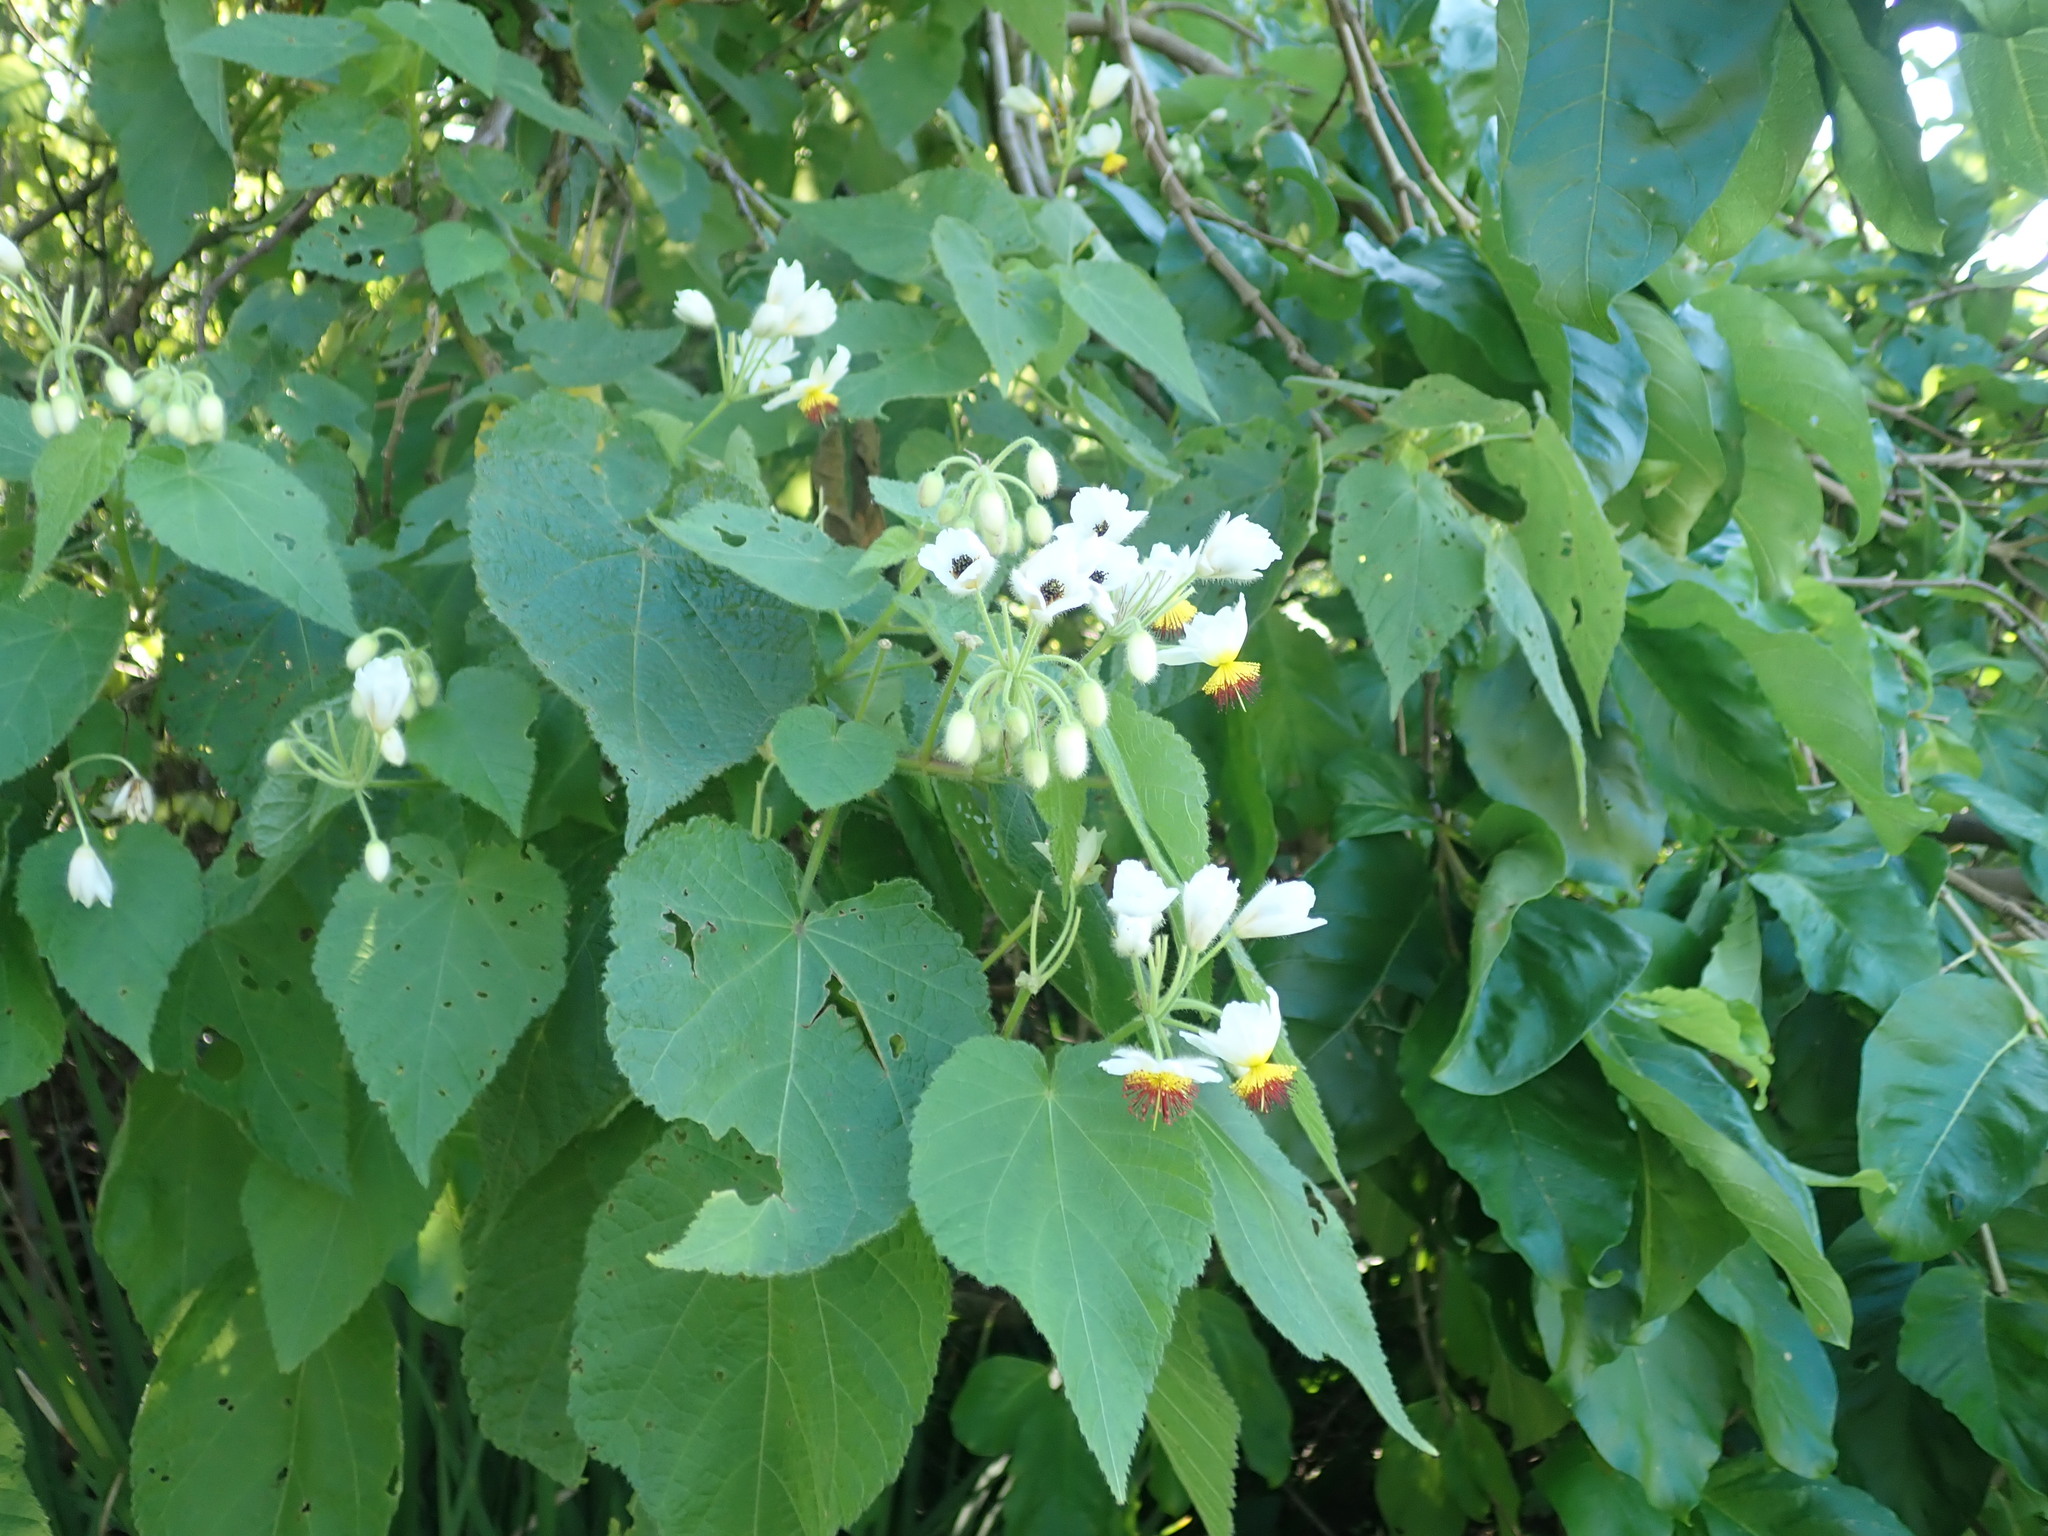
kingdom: Plantae
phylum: Tracheophyta
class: Magnoliopsida
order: Malvales
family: Malvaceae
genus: Sparrmannia
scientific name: Sparrmannia africana
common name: African-hemp
